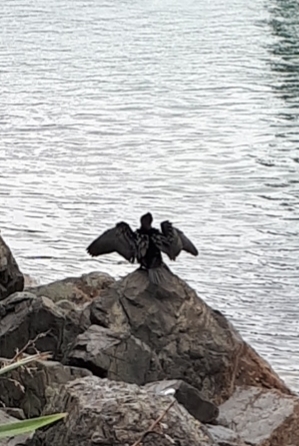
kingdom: Animalia
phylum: Chordata
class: Aves
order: Suliformes
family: Phalacrocoracidae
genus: Microcarbo
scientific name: Microcarbo melanoleucos
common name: Little pied cormorant
